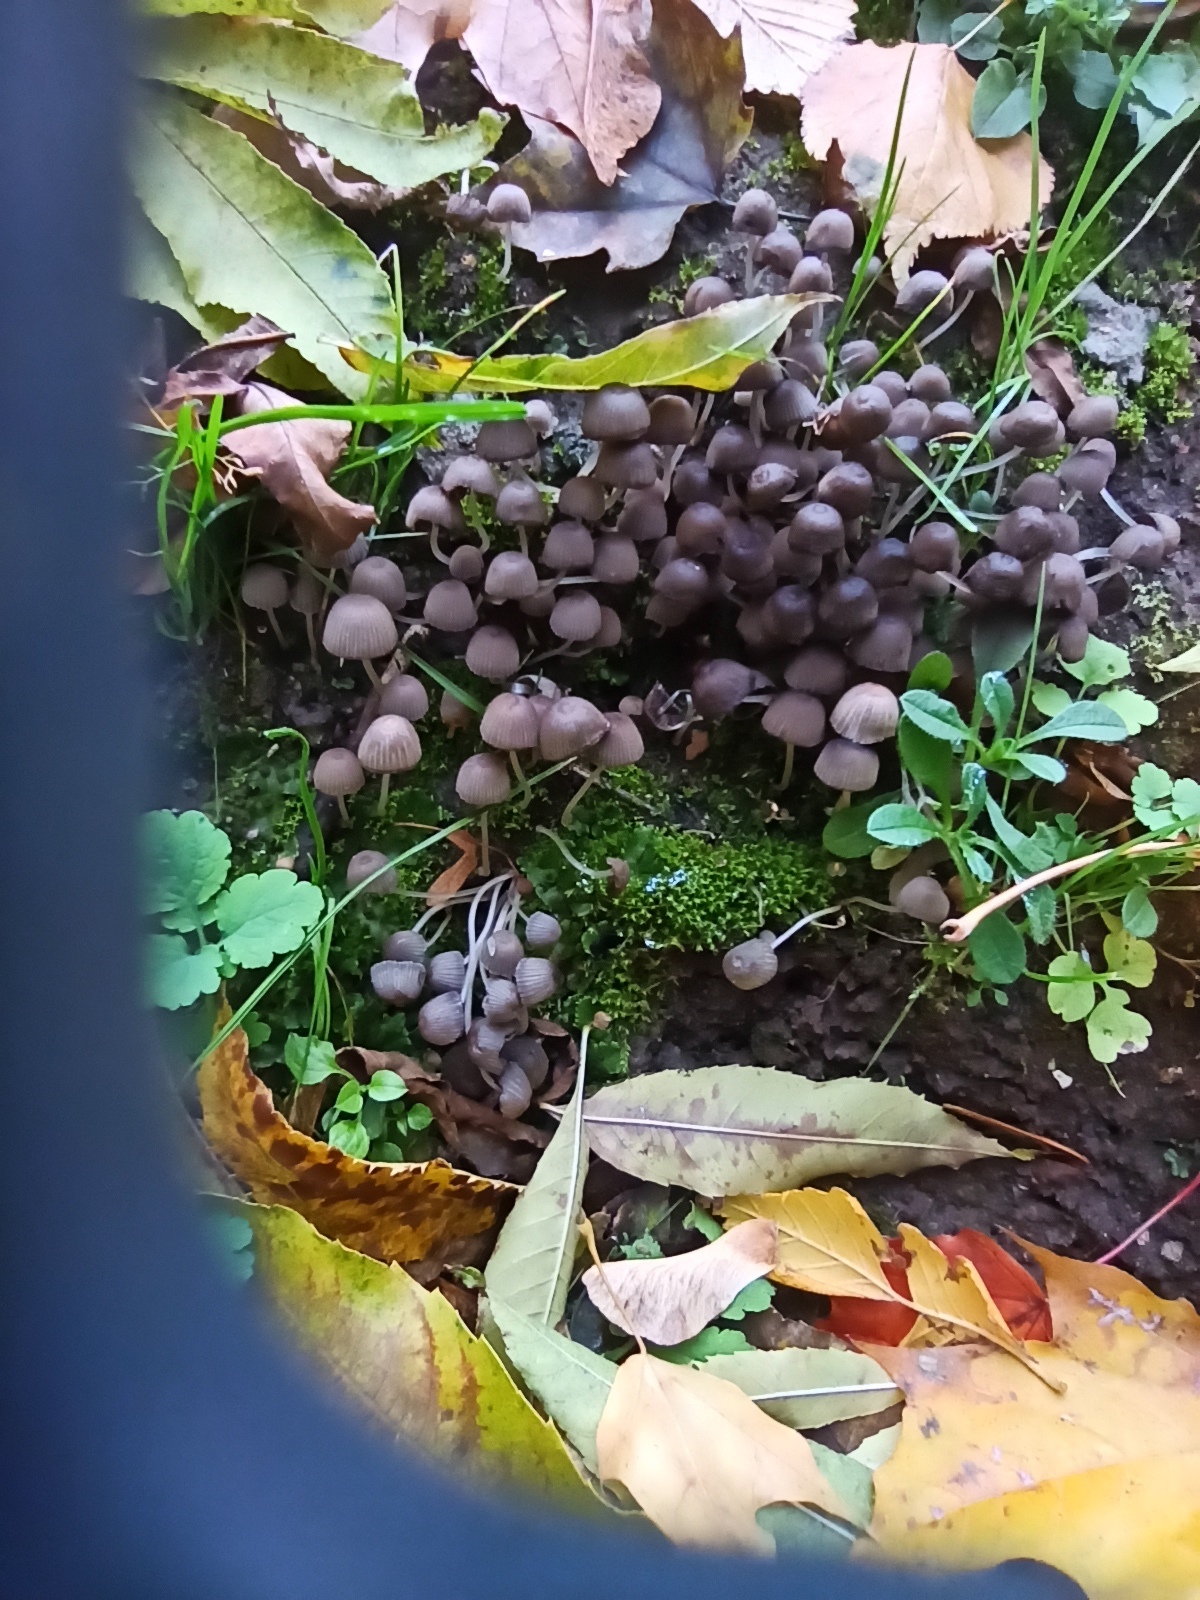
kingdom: Fungi
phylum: Basidiomycota
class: Agaricomycetes
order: Agaricales
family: Psathyrellaceae
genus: Coprinellus
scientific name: Coprinellus disseminatus
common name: Fairies' bonnets
